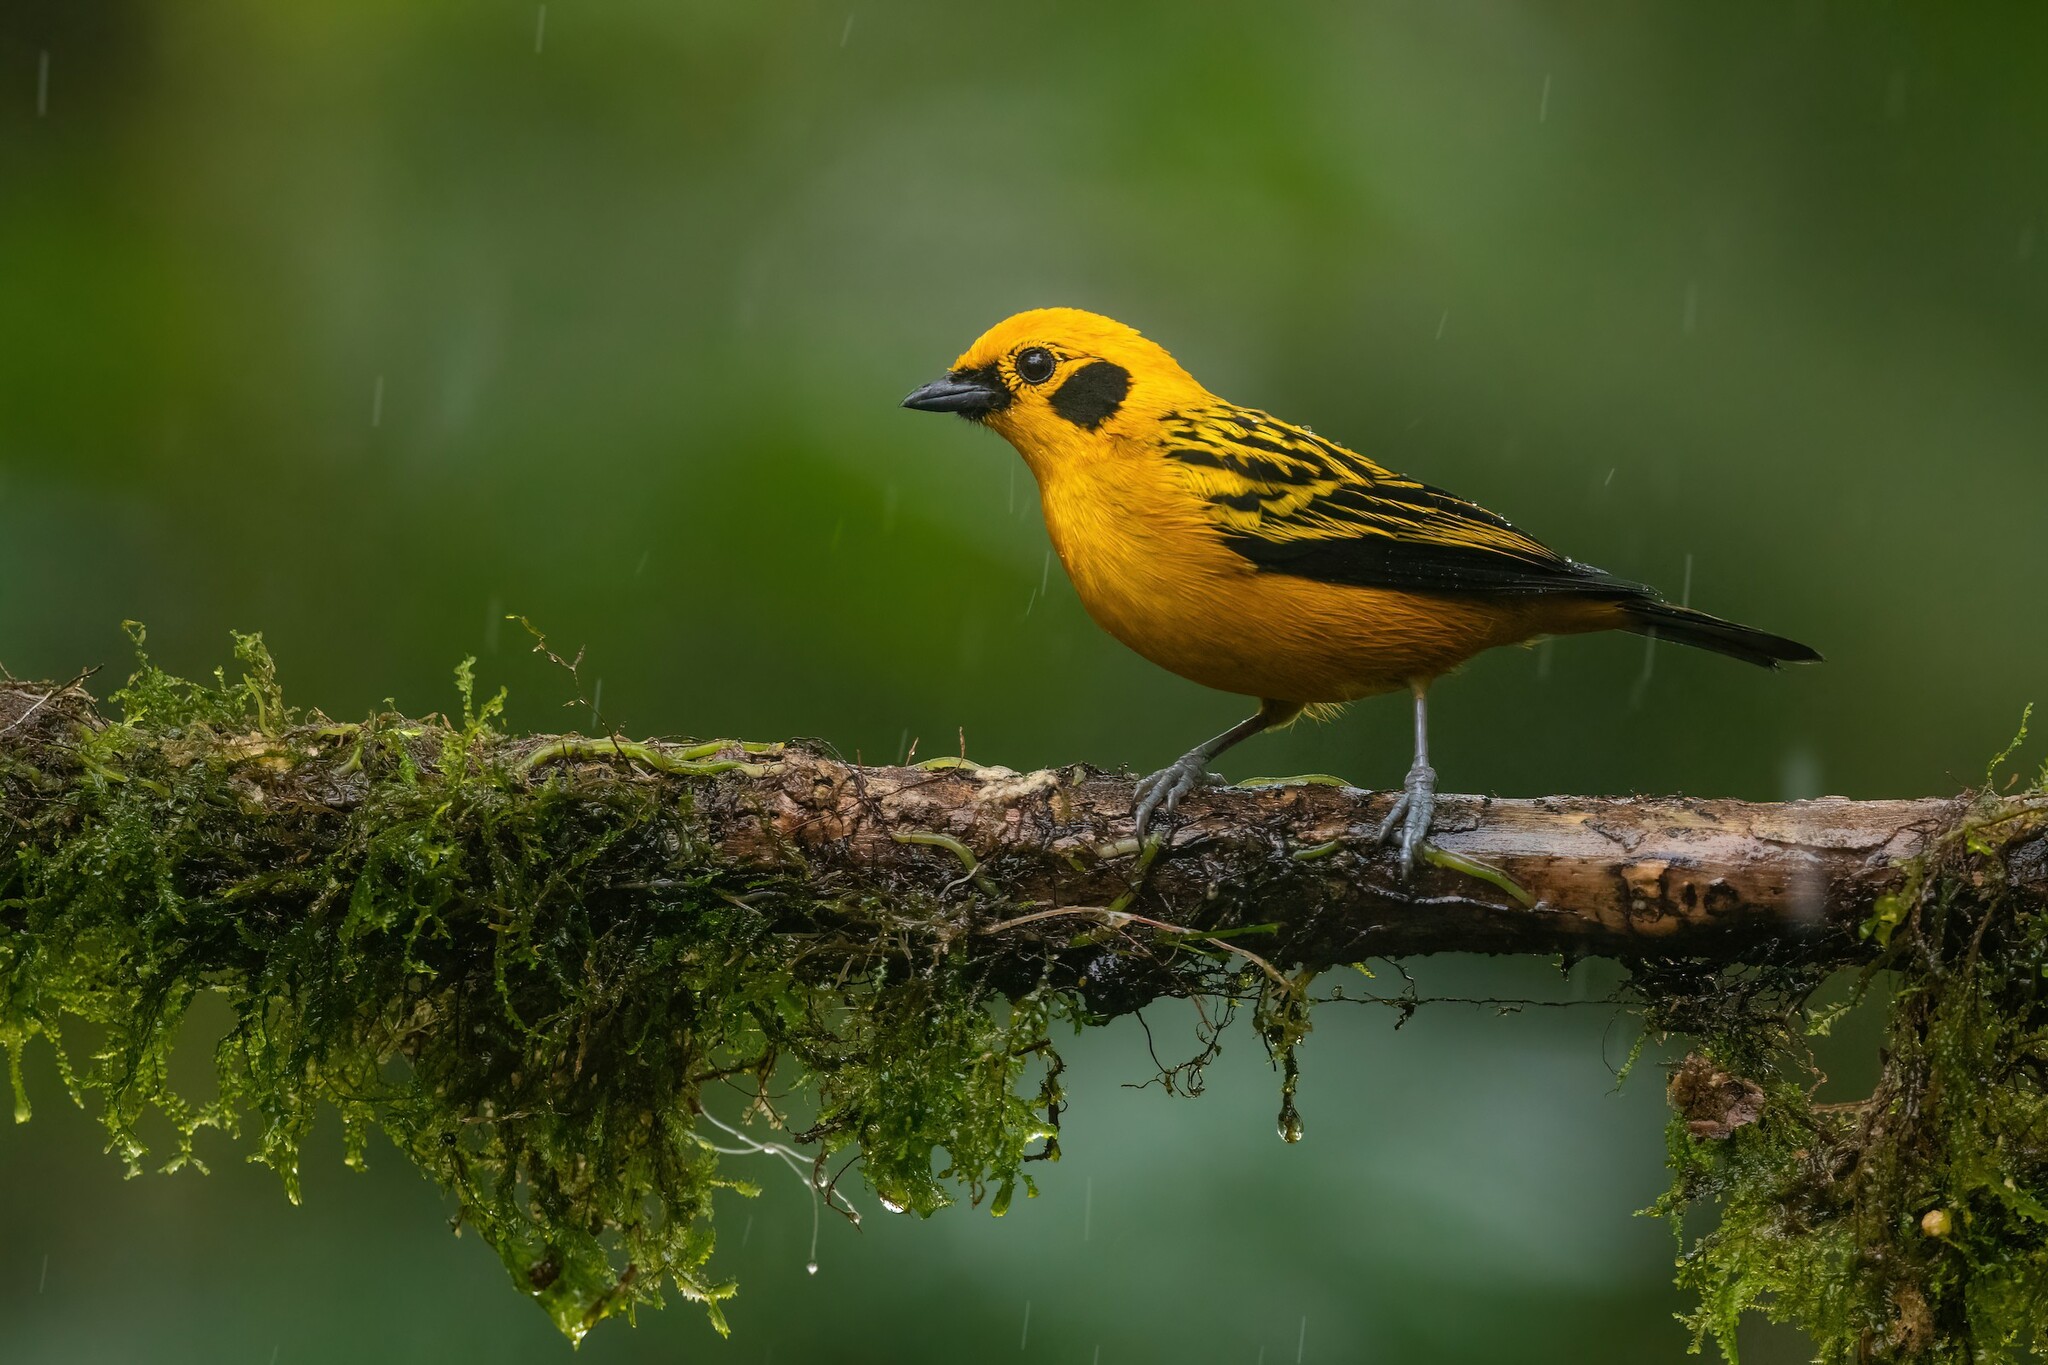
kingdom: Animalia
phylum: Chordata
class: Aves
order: Passeriformes
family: Thraupidae
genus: Tangara
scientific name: Tangara arthus
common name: Golden tanager
